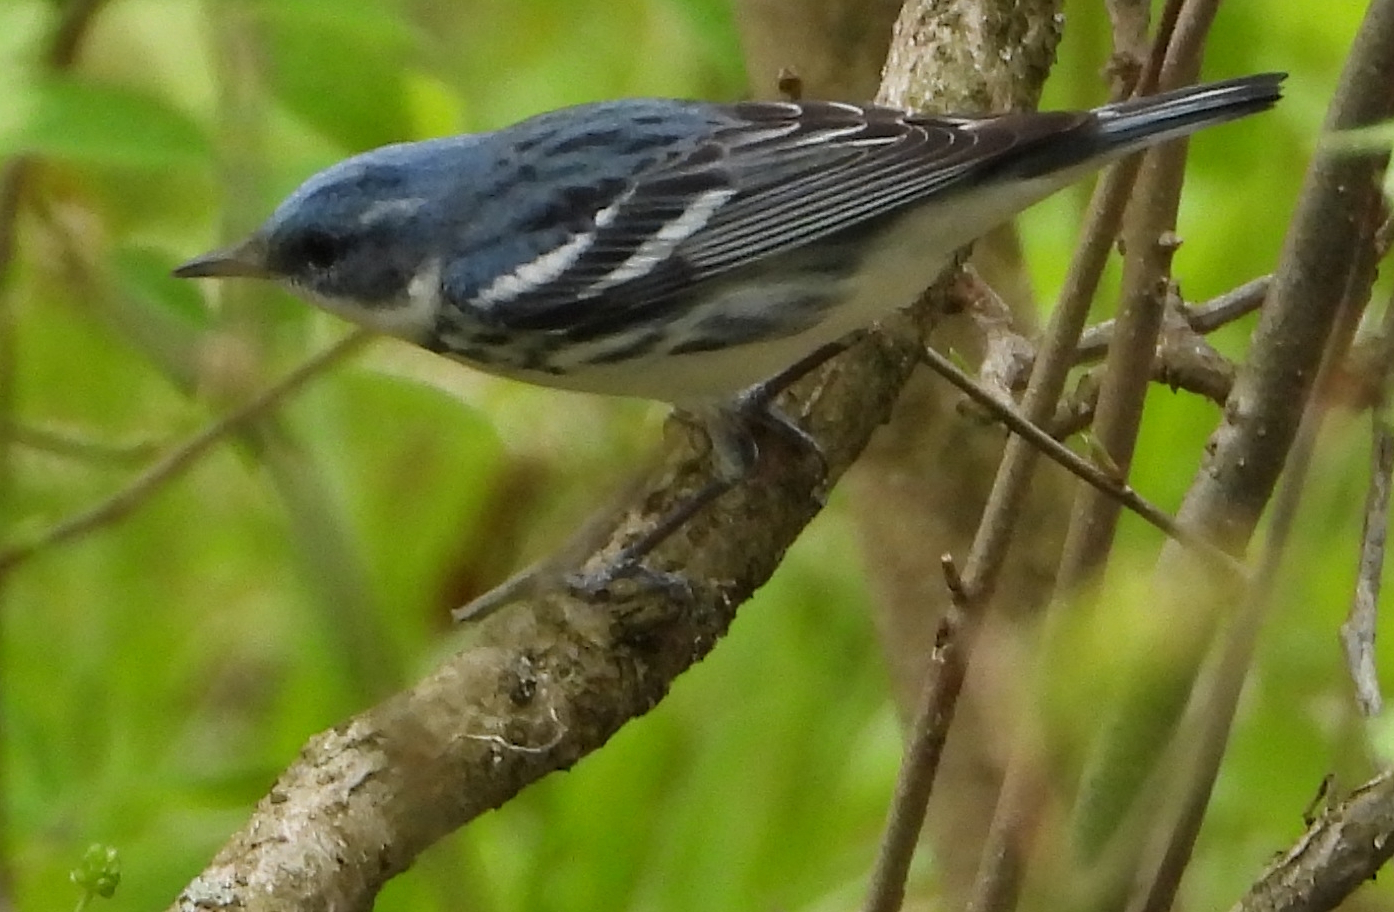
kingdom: Animalia
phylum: Chordata
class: Aves
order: Passeriformes
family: Parulidae
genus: Setophaga
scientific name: Setophaga cerulea
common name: Cerulean warbler
